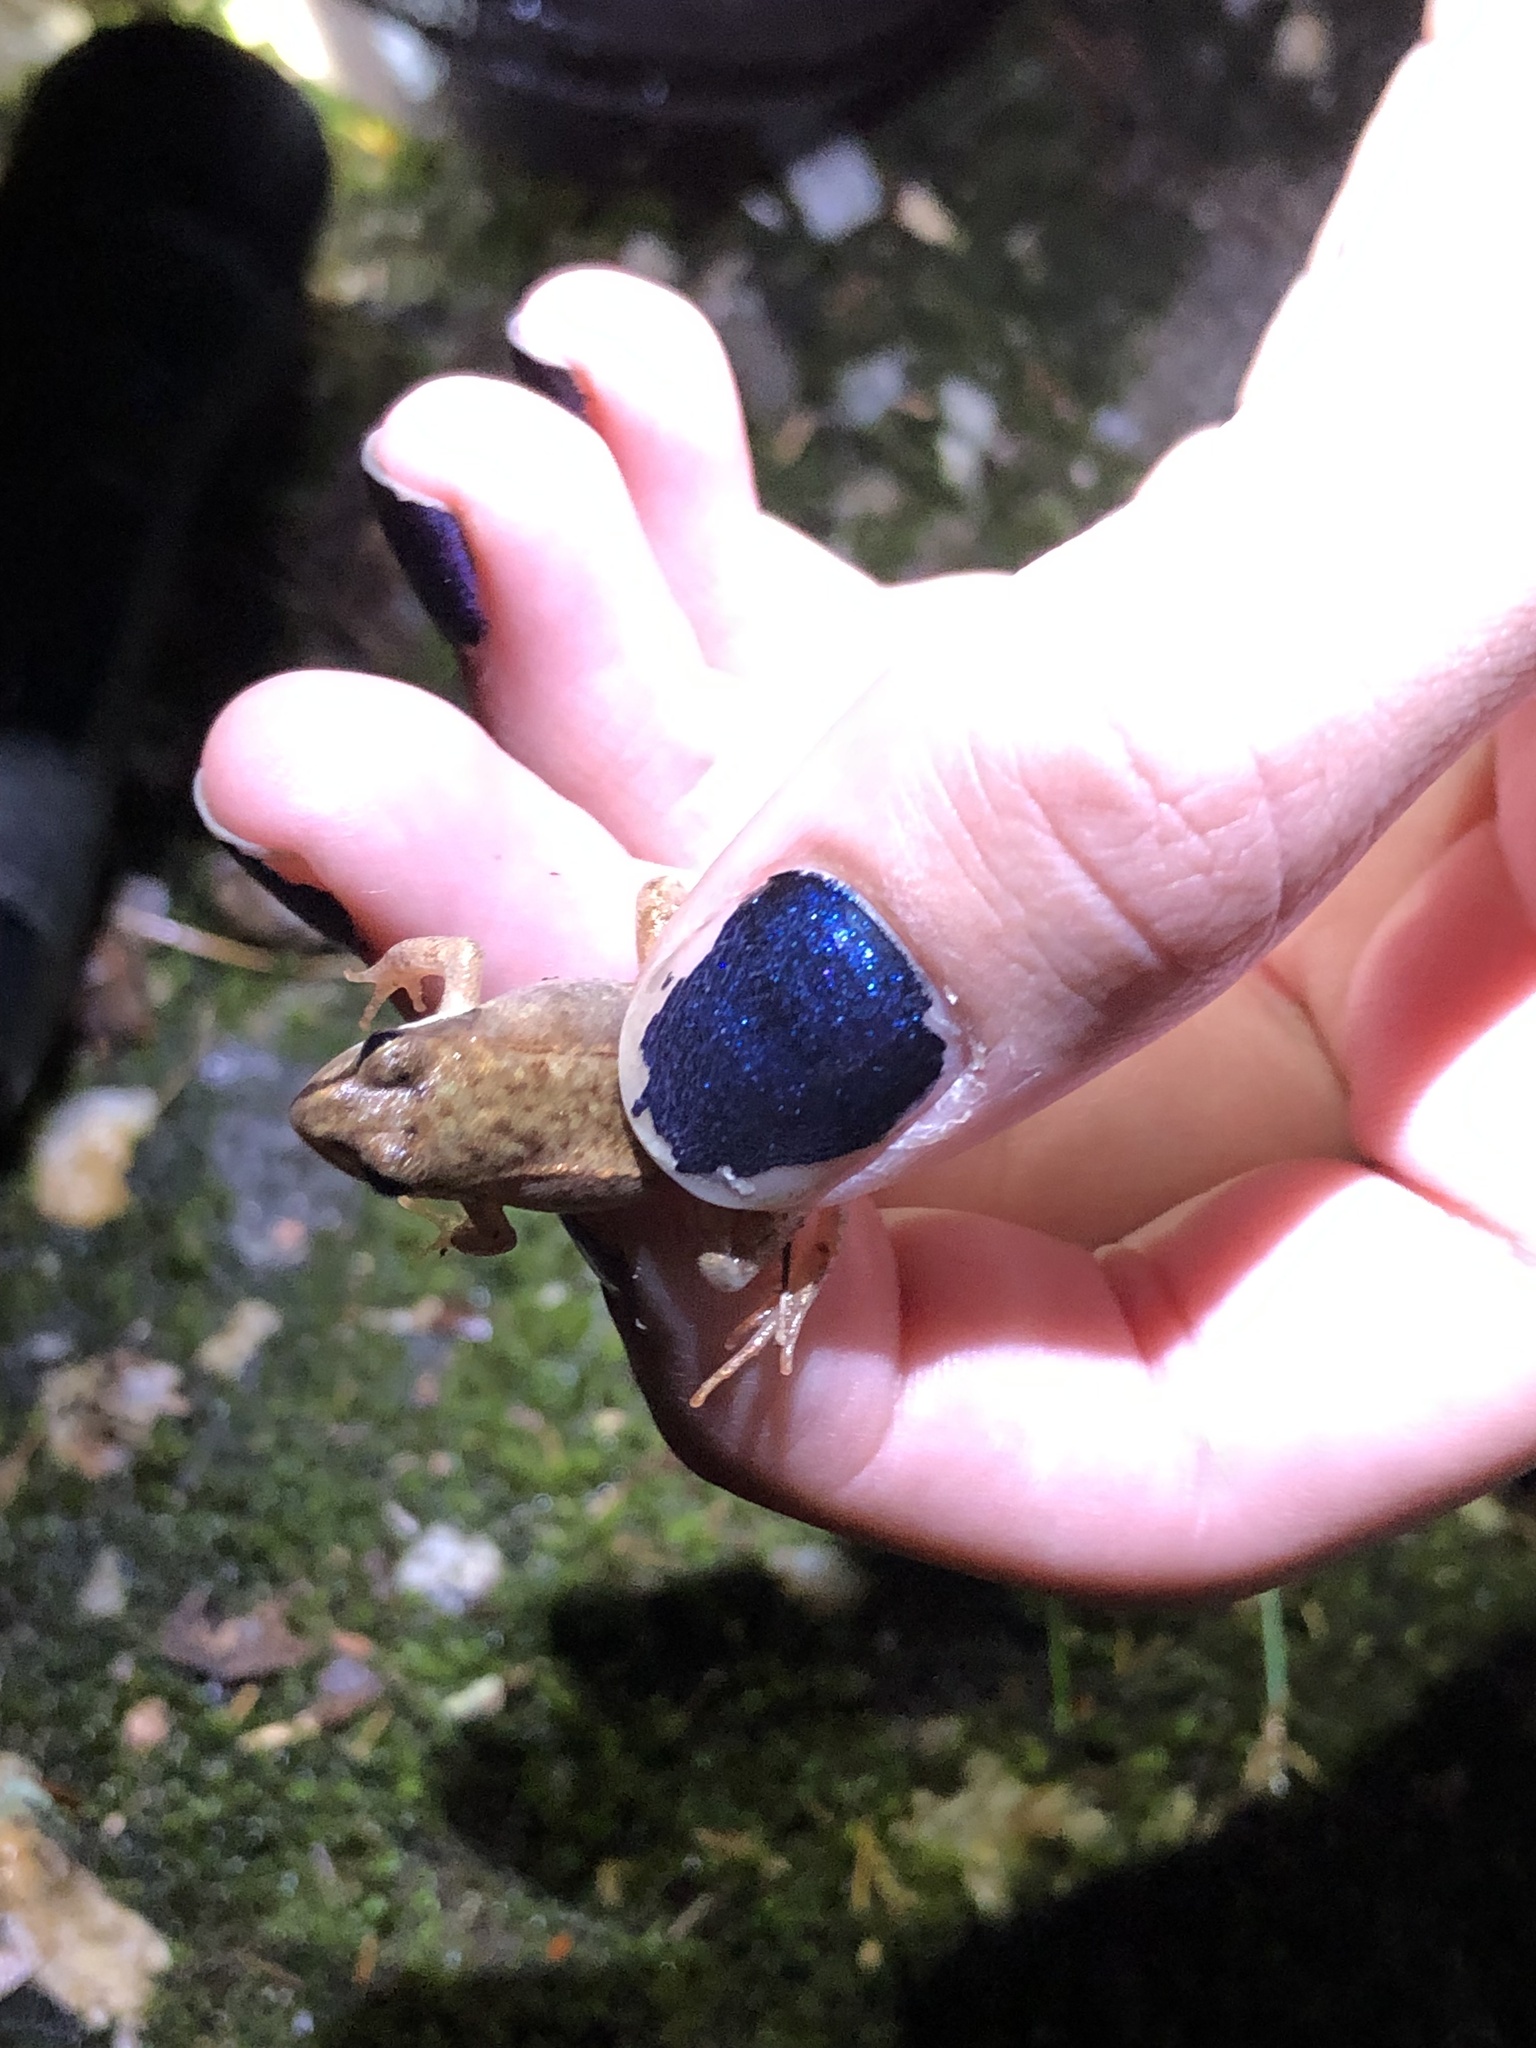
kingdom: Animalia
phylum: Chordata
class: Amphibia
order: Anura
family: Ranidae
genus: Lithobates
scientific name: Lithobates sylvaticus
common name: Wood frog
